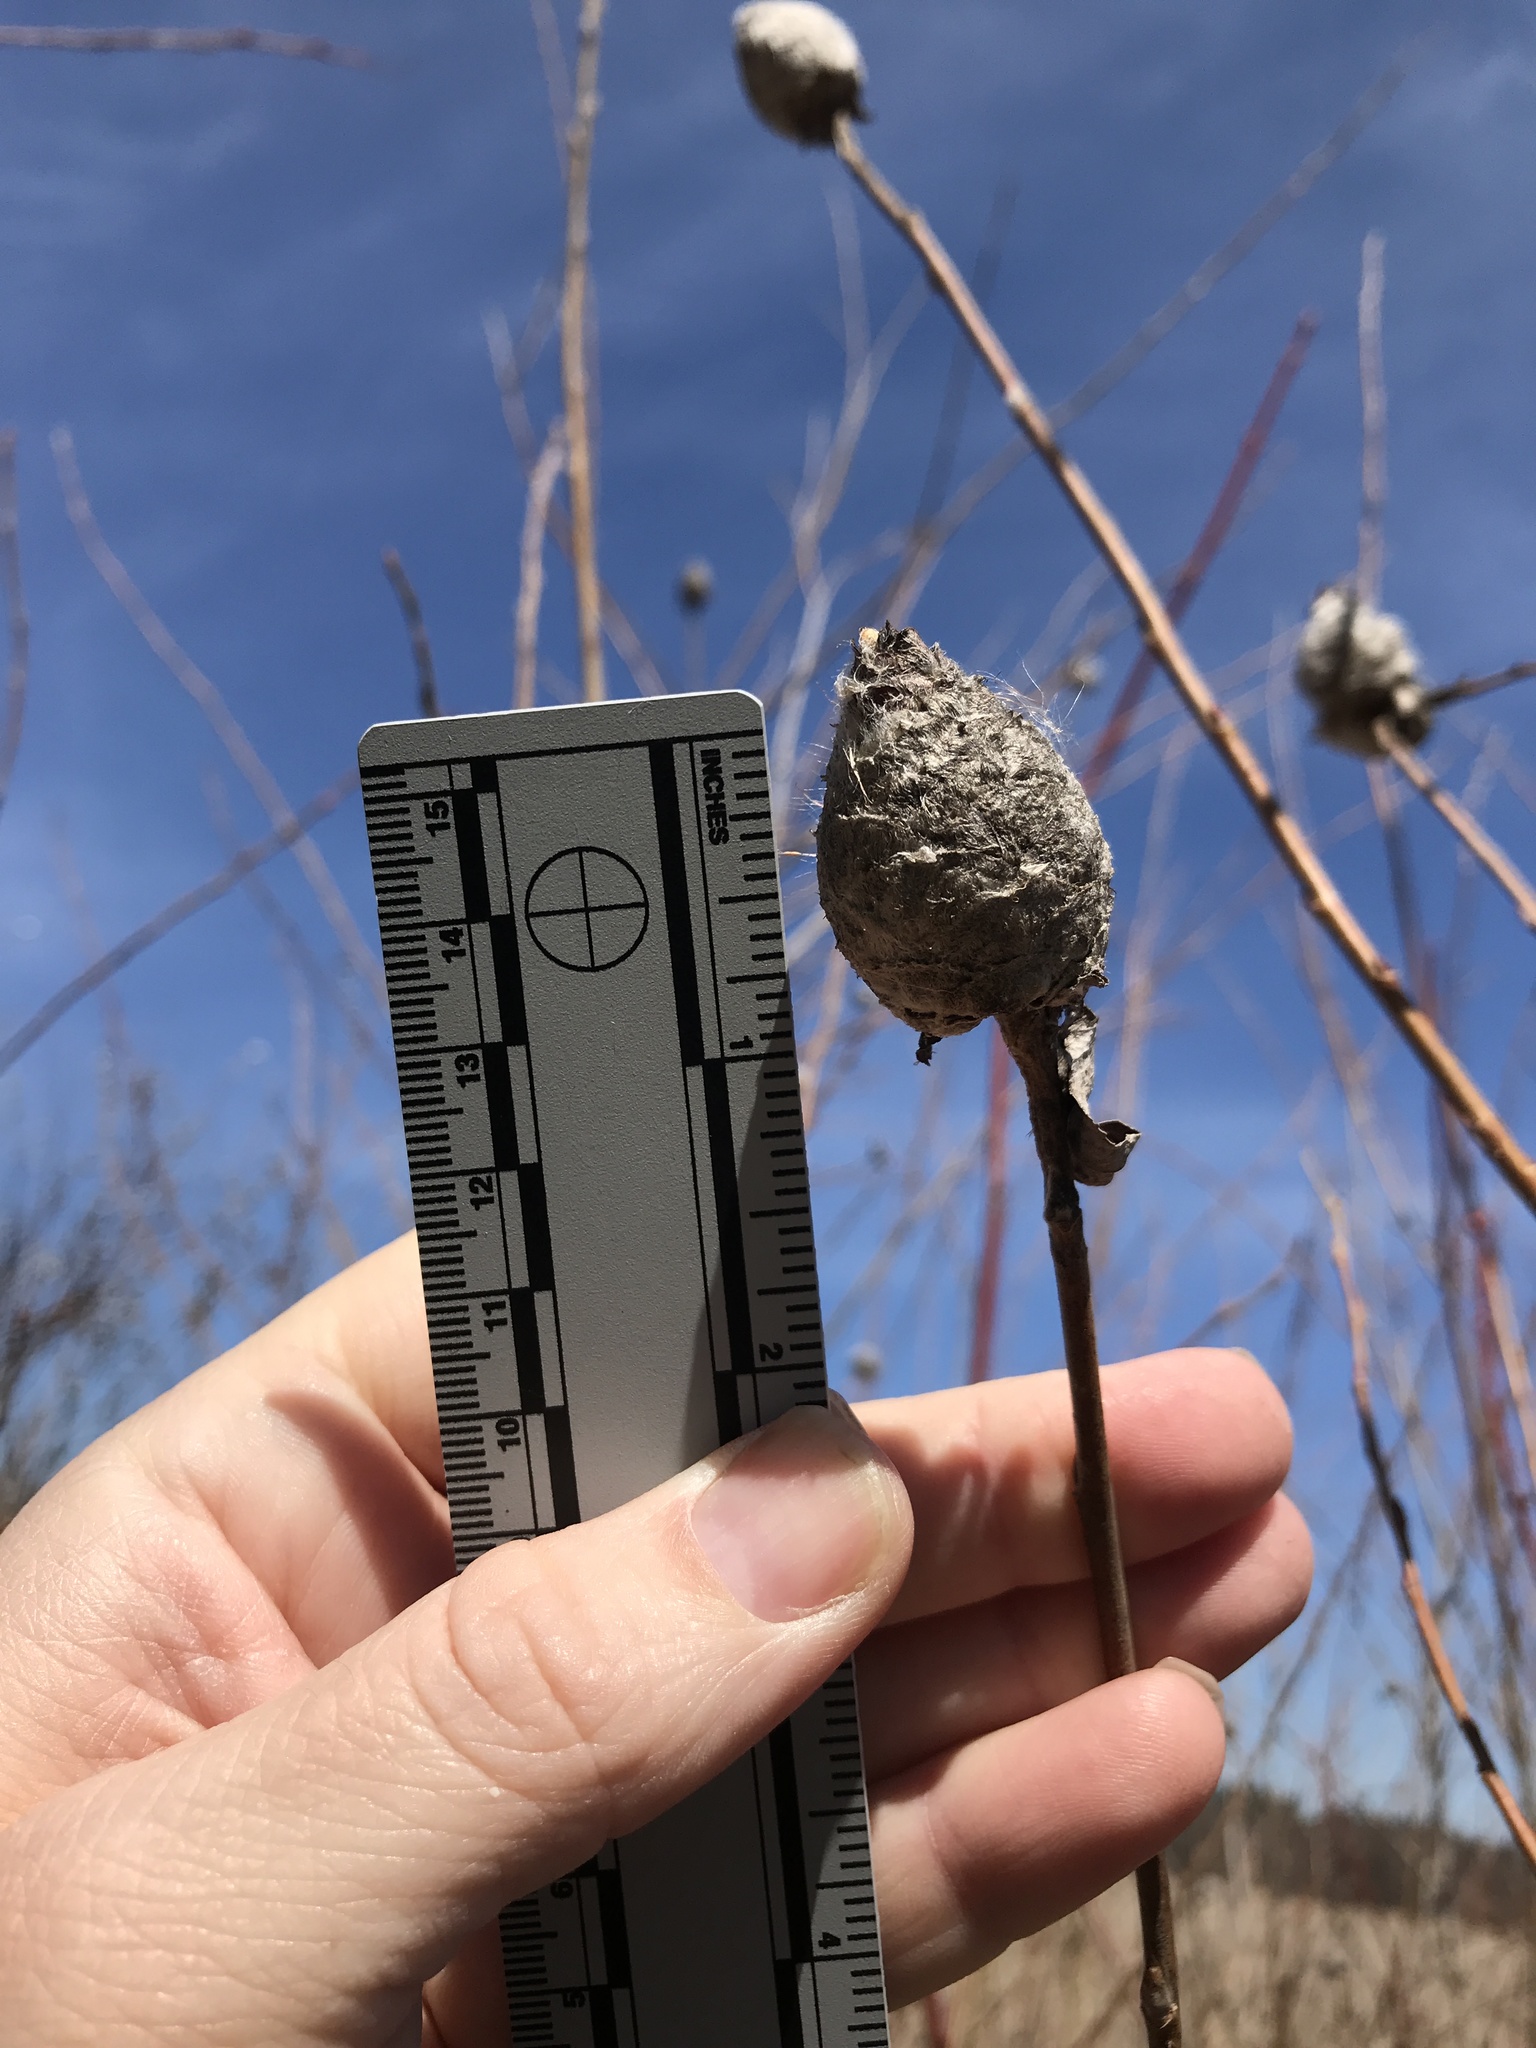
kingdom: Animalia
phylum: Arthropoda
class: Insecta
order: Diptera
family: Cecidomyiidae
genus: Rabdophaga
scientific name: Rabdophaga strobiloides
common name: Willow pinecone gall midge
